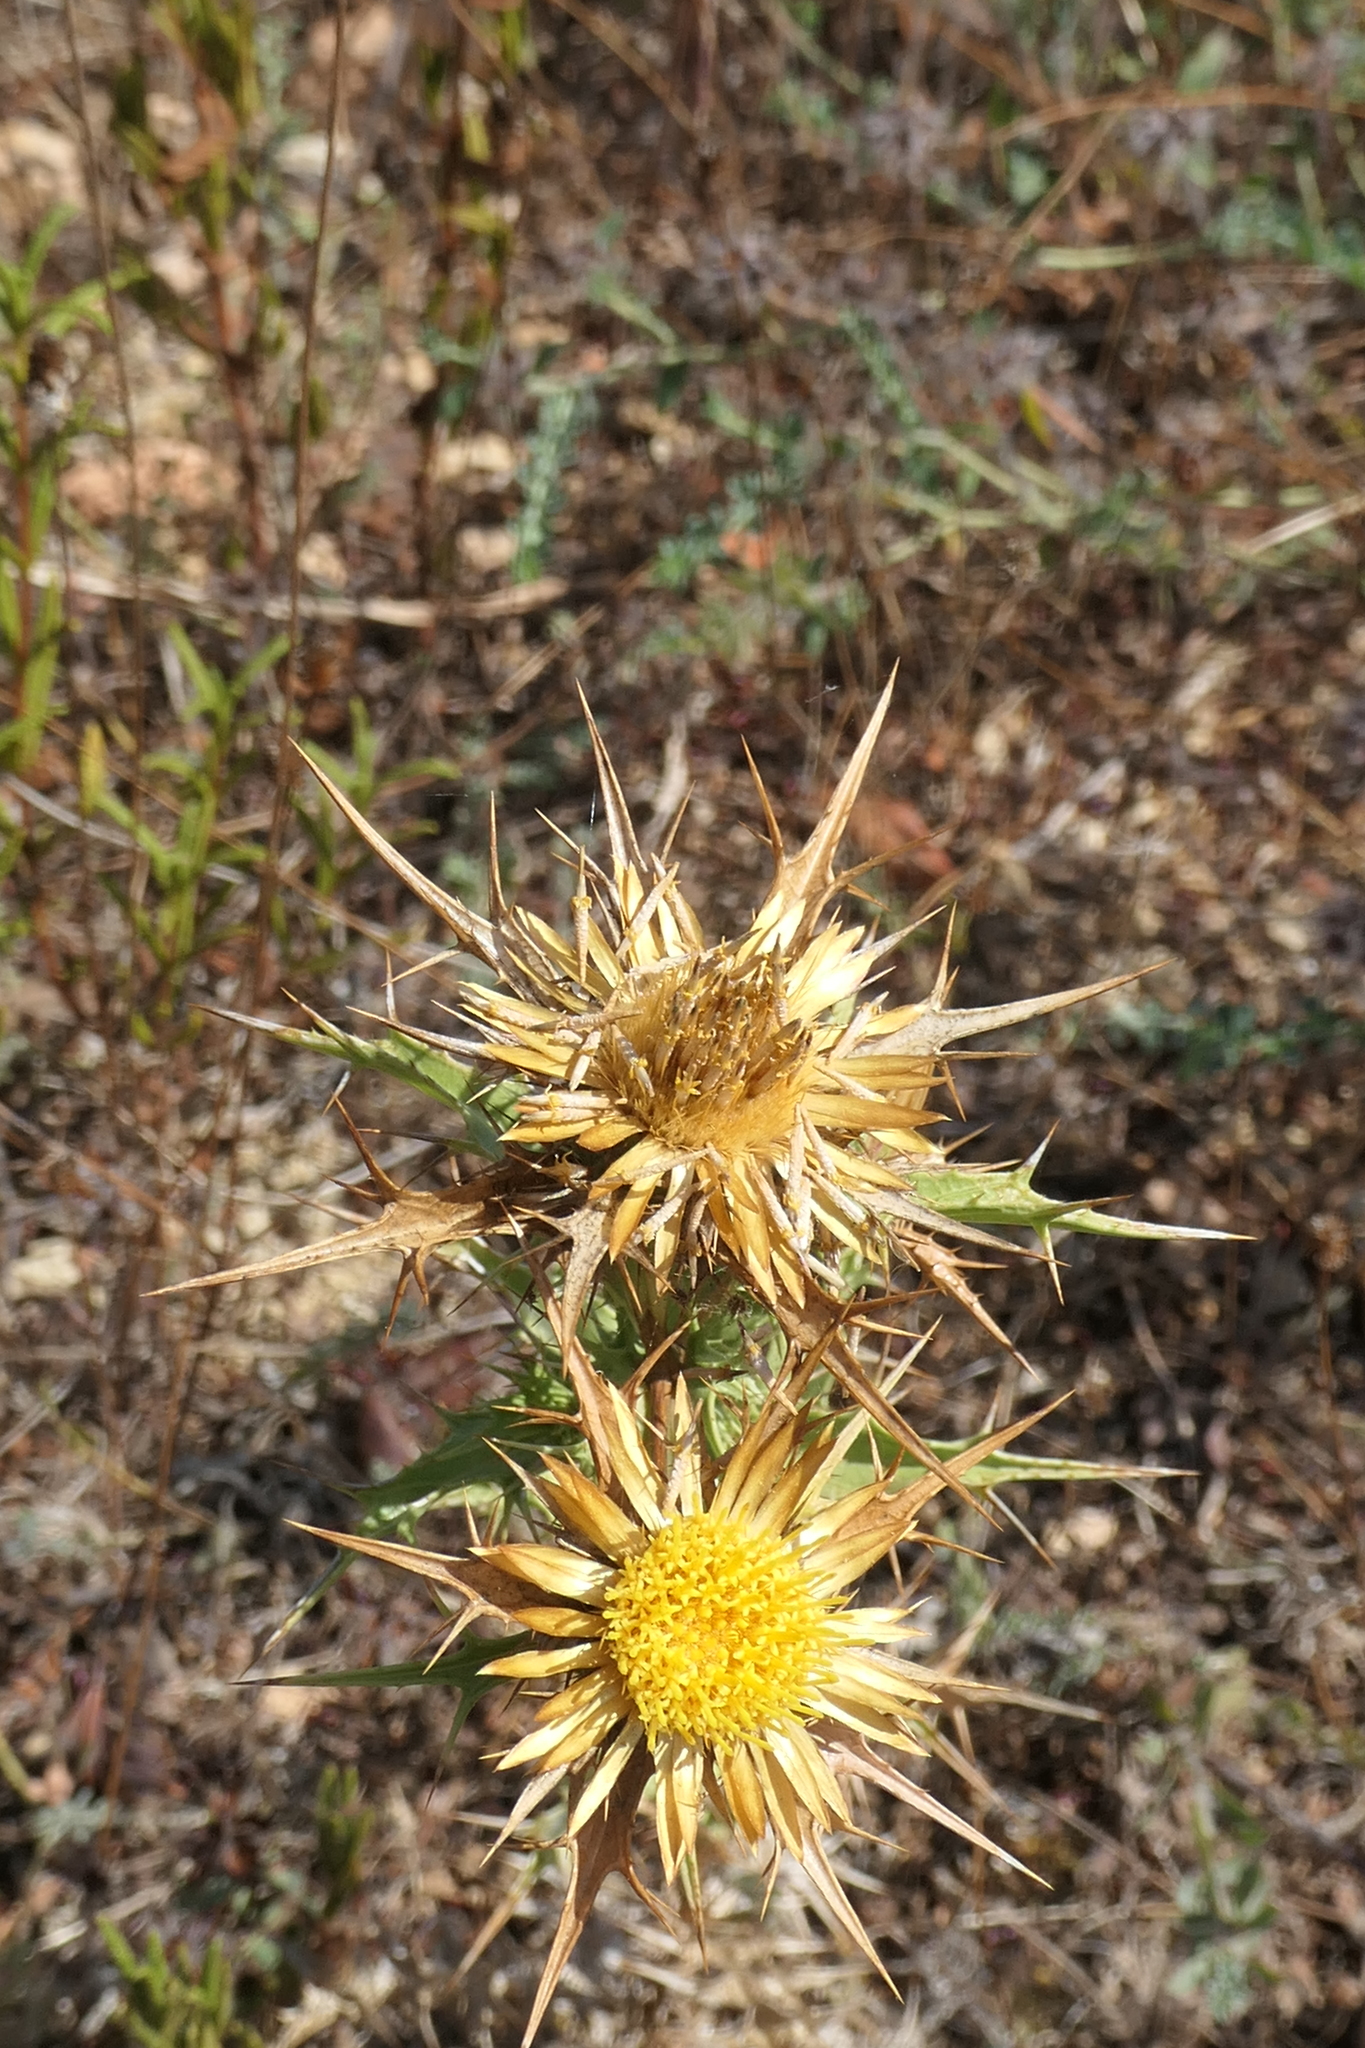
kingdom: Plantae
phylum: Tracheophyta
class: Magnoliopsida
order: Asterales
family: Asteraceae
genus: Carlina
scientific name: Carlina corymbosa
